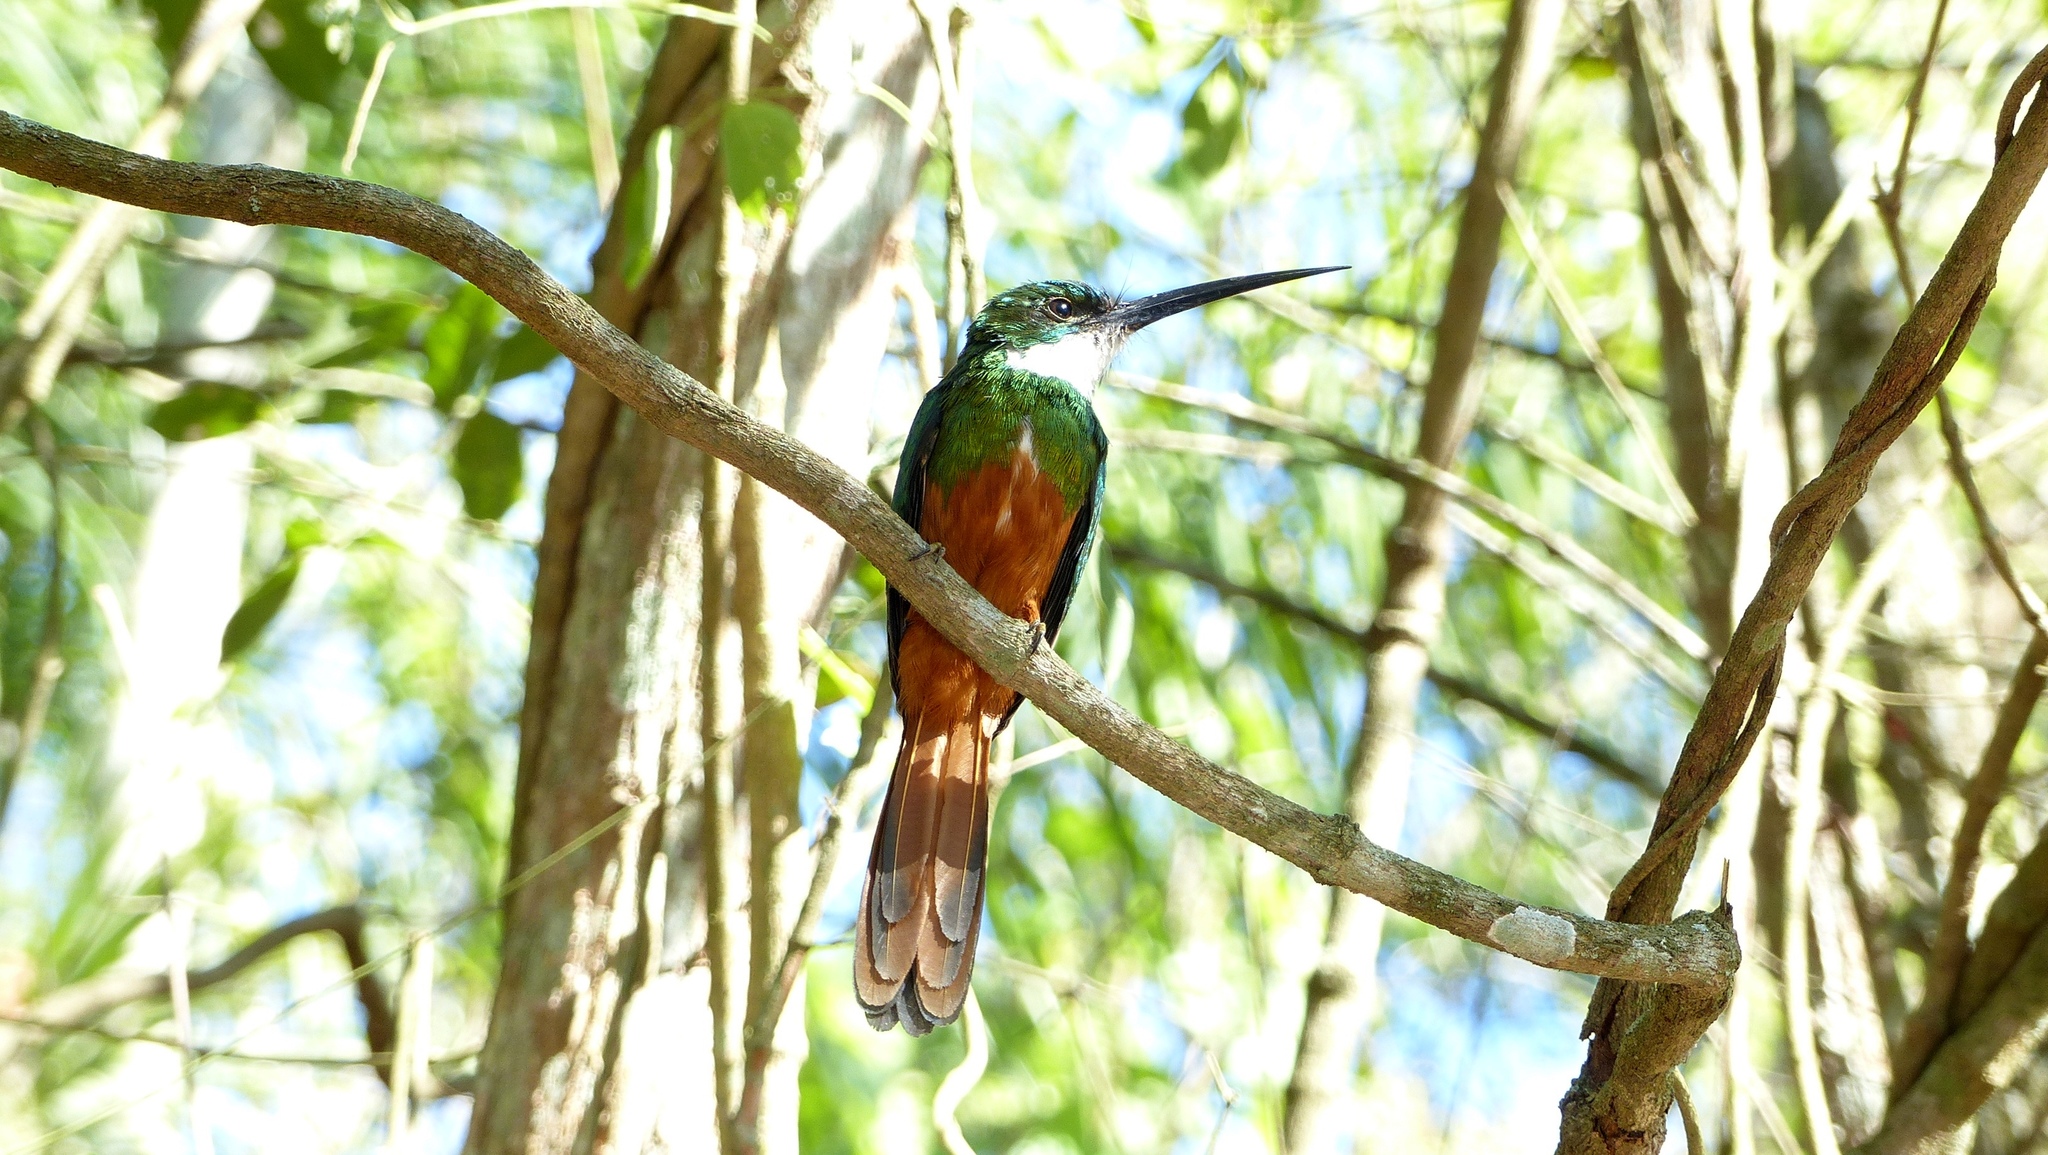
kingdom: Animalia
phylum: Chordata
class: Aves
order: Piciformes
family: Galbulidae
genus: Galbula
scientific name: Galbula ruficauda
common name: Rufous-tailed jacamar
